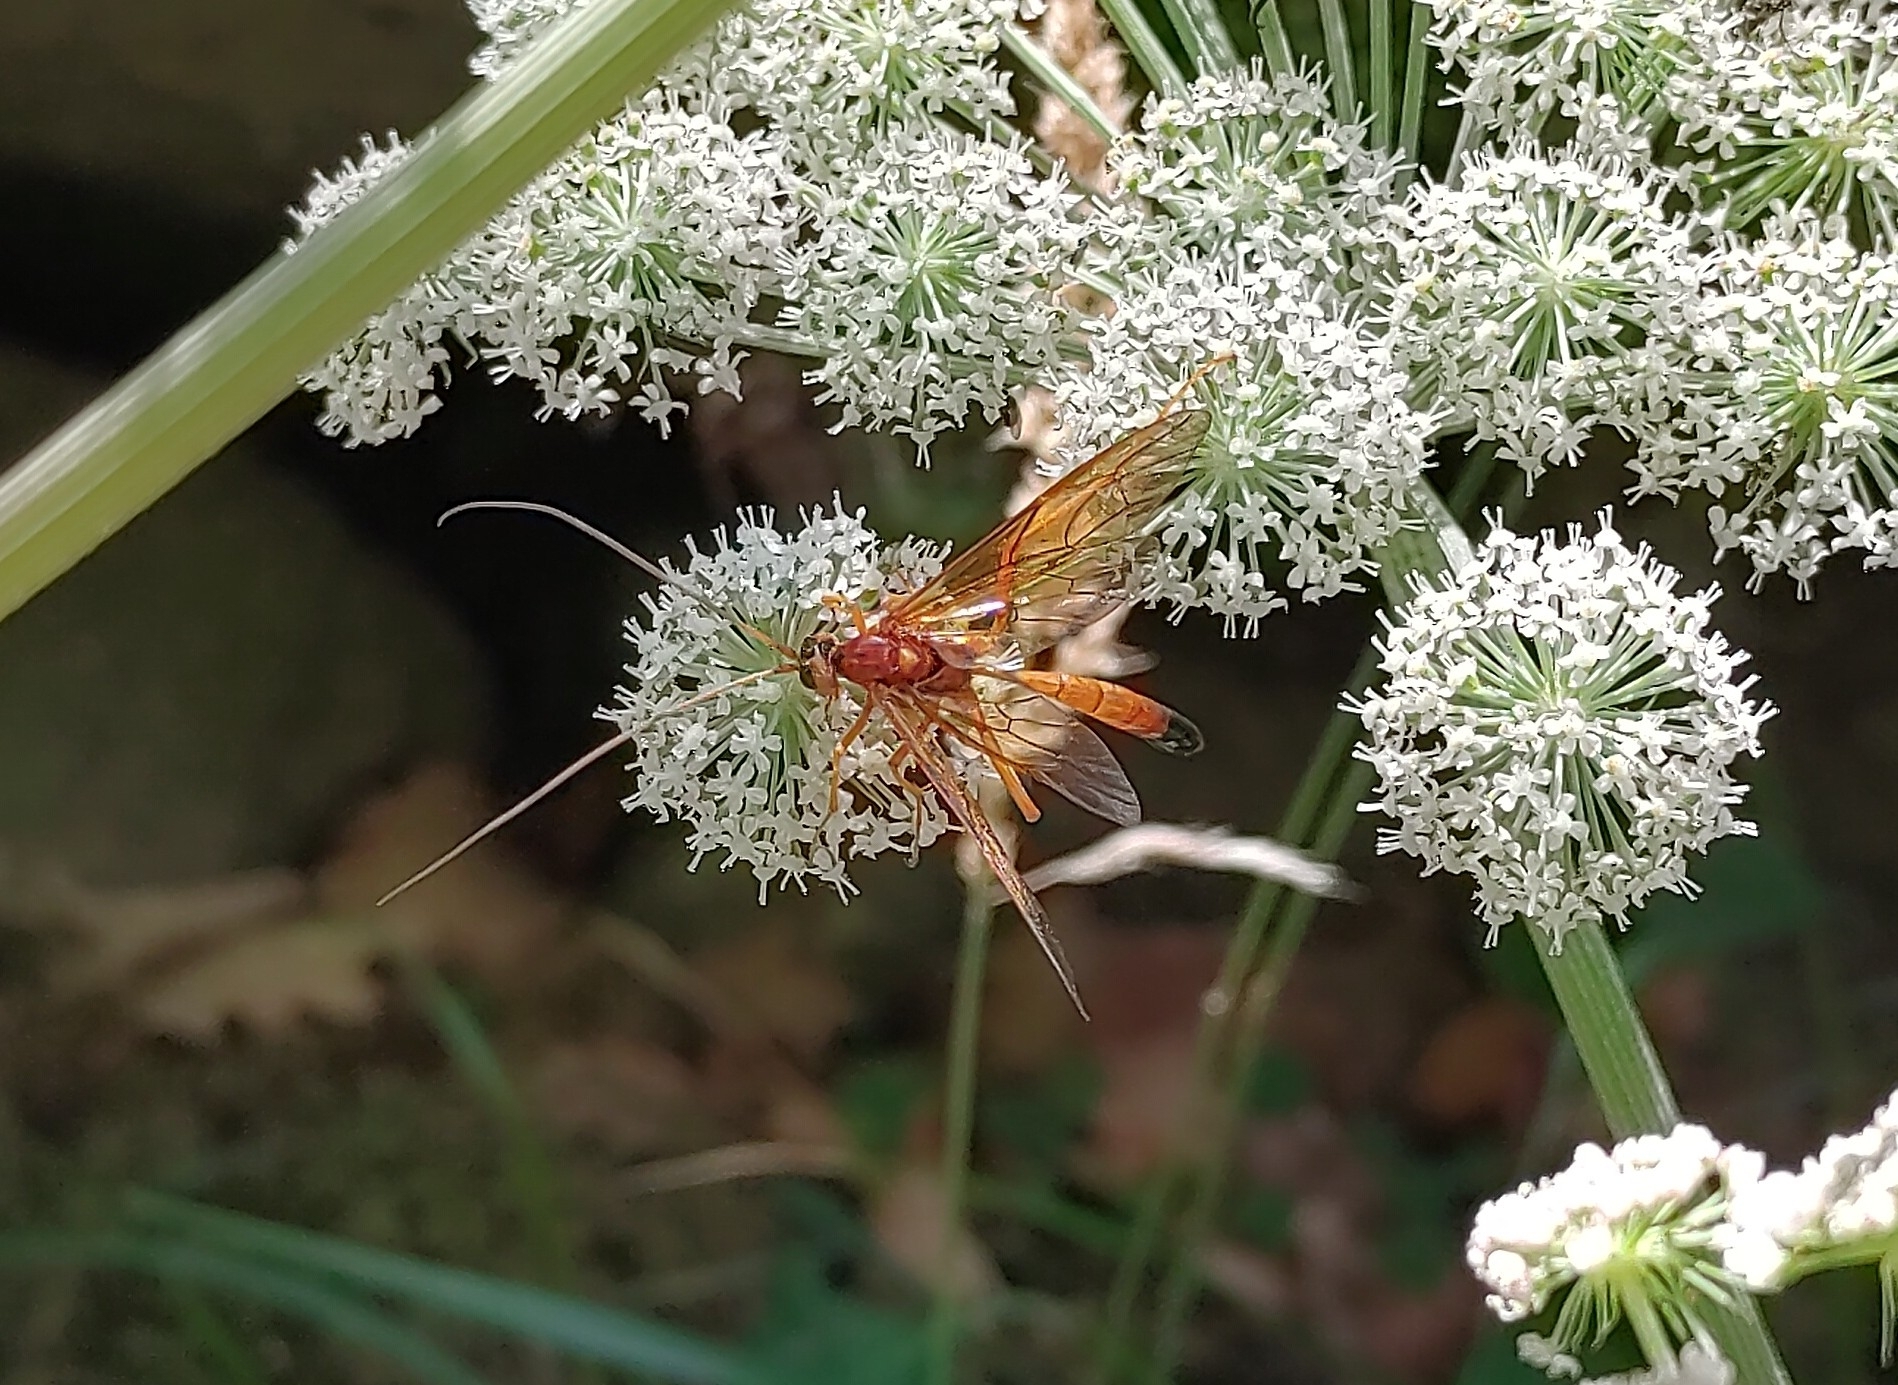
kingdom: Animalia
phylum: Arthropoda
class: Insecta
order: Hymenoptera
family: Ichneumonidae
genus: Opheltes
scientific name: Opheltes glaucopterus
